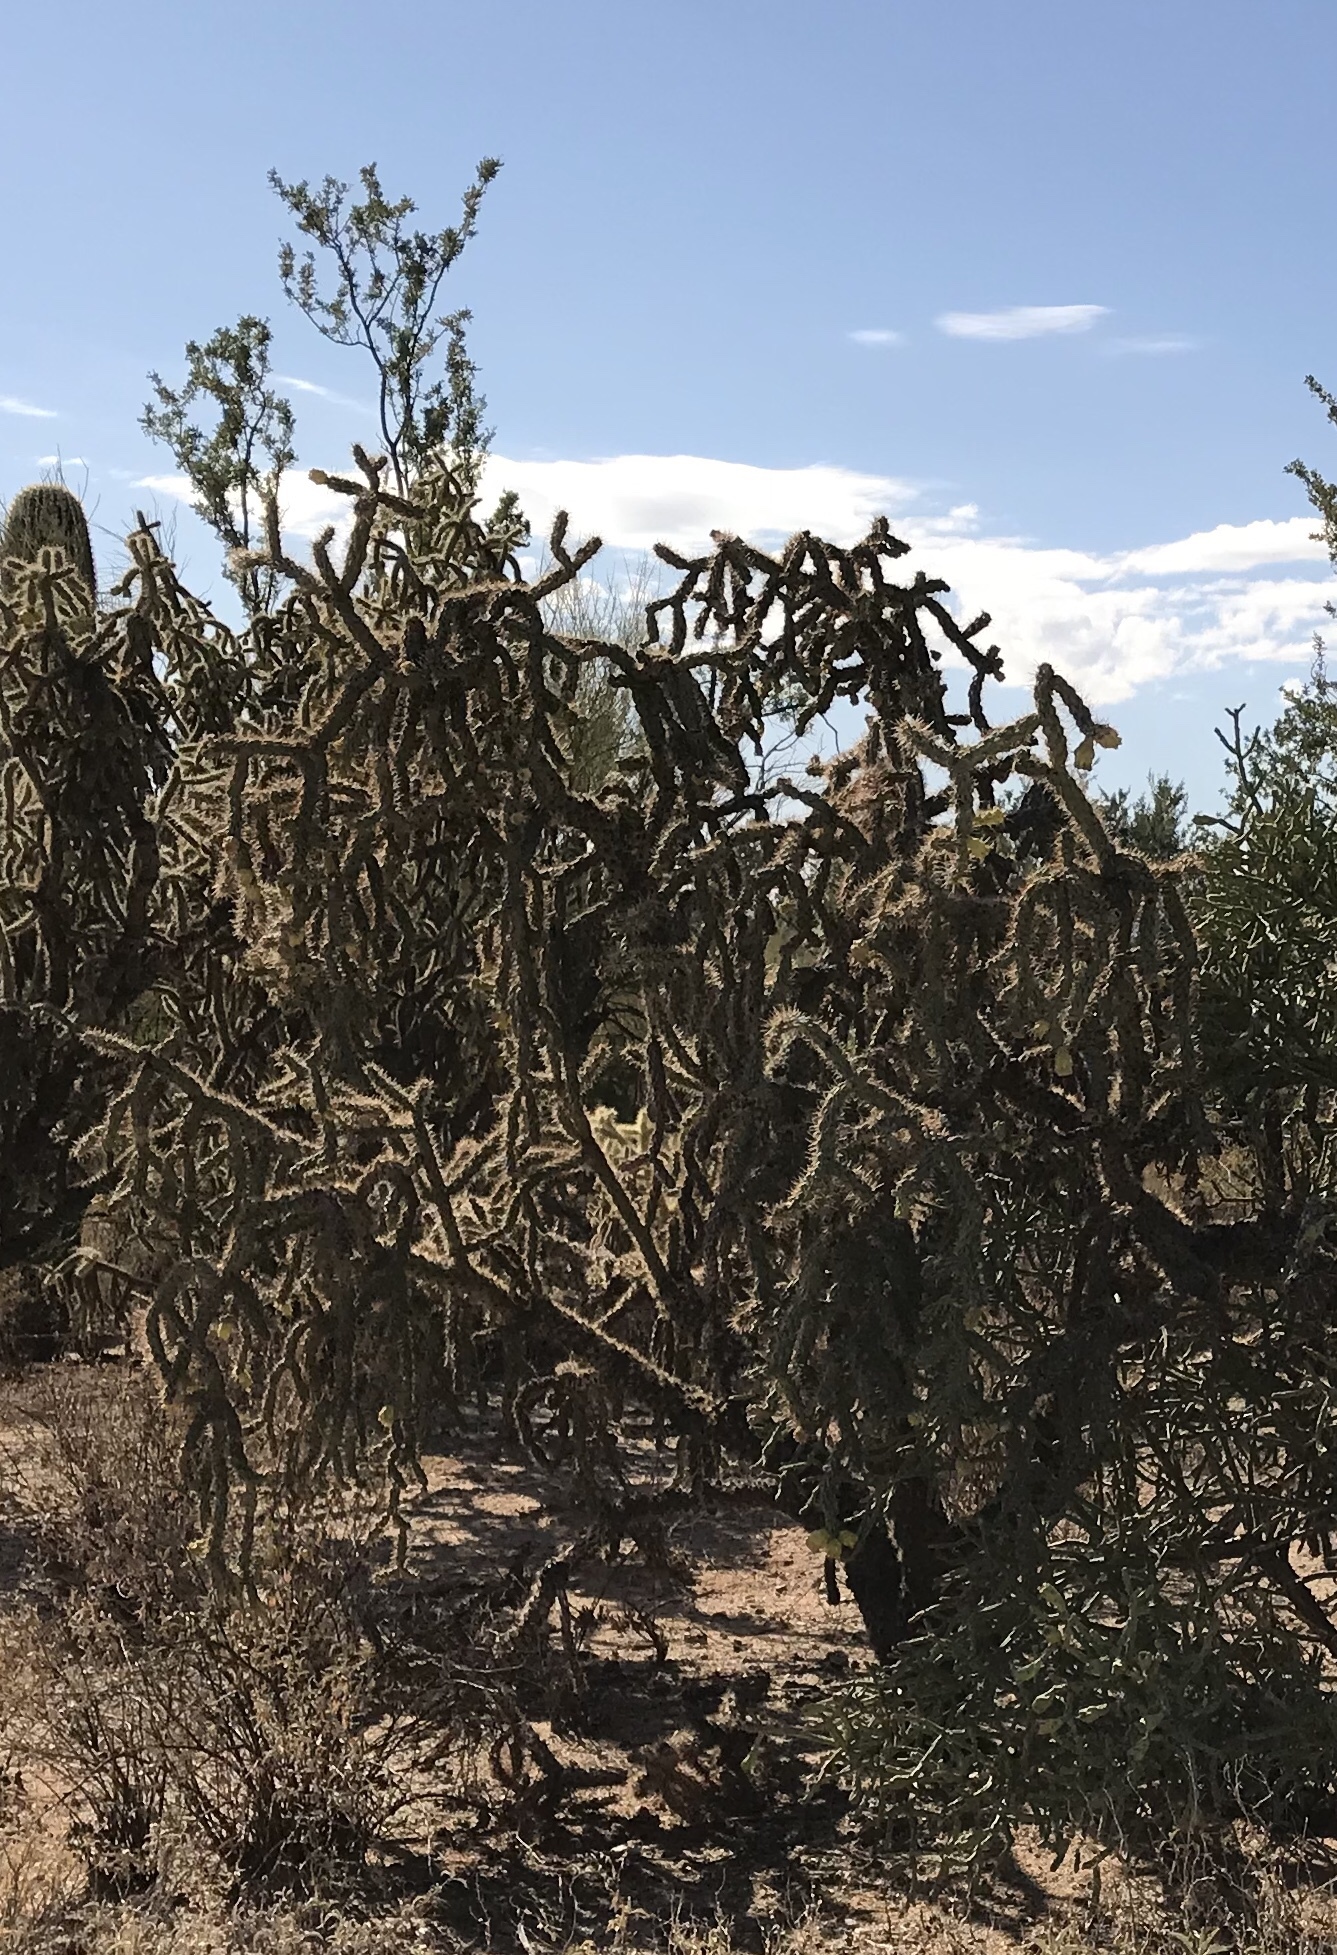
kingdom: Plantae
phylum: Tracheophyta
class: Magnoliopsida
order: Caryophyllales
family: Cactaceae
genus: Cylindropuntia
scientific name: Cylindropuntia imbricata
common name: Candelabrum cactus
